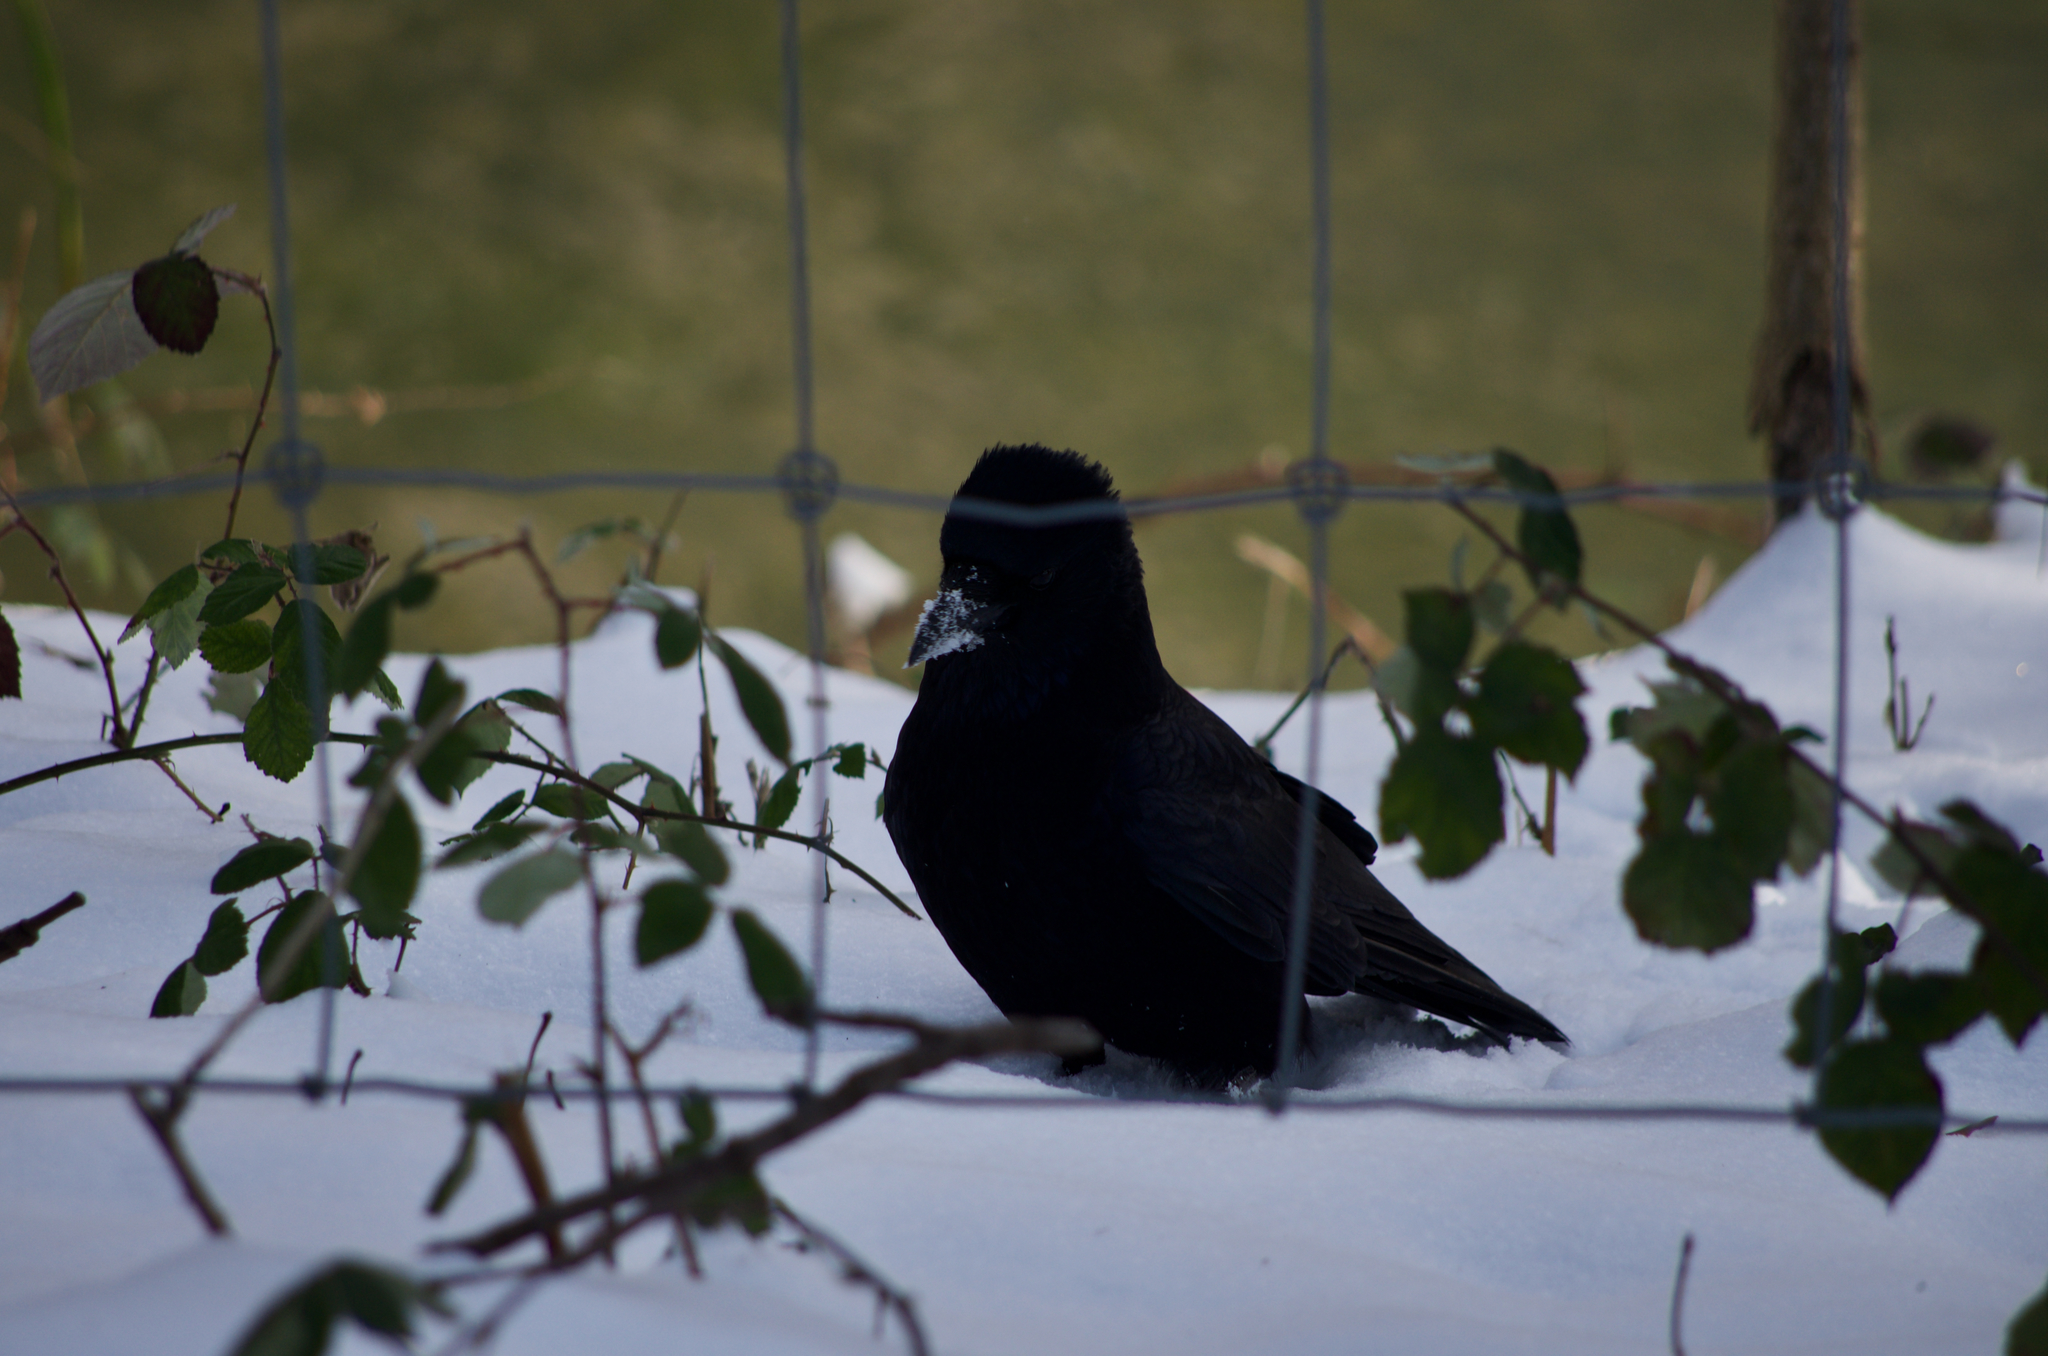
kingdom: Animalia
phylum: Chordata
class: Aves
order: Passeriformes
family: Corvidae
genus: Corvus
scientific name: Corvus corone
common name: Carrion crow
